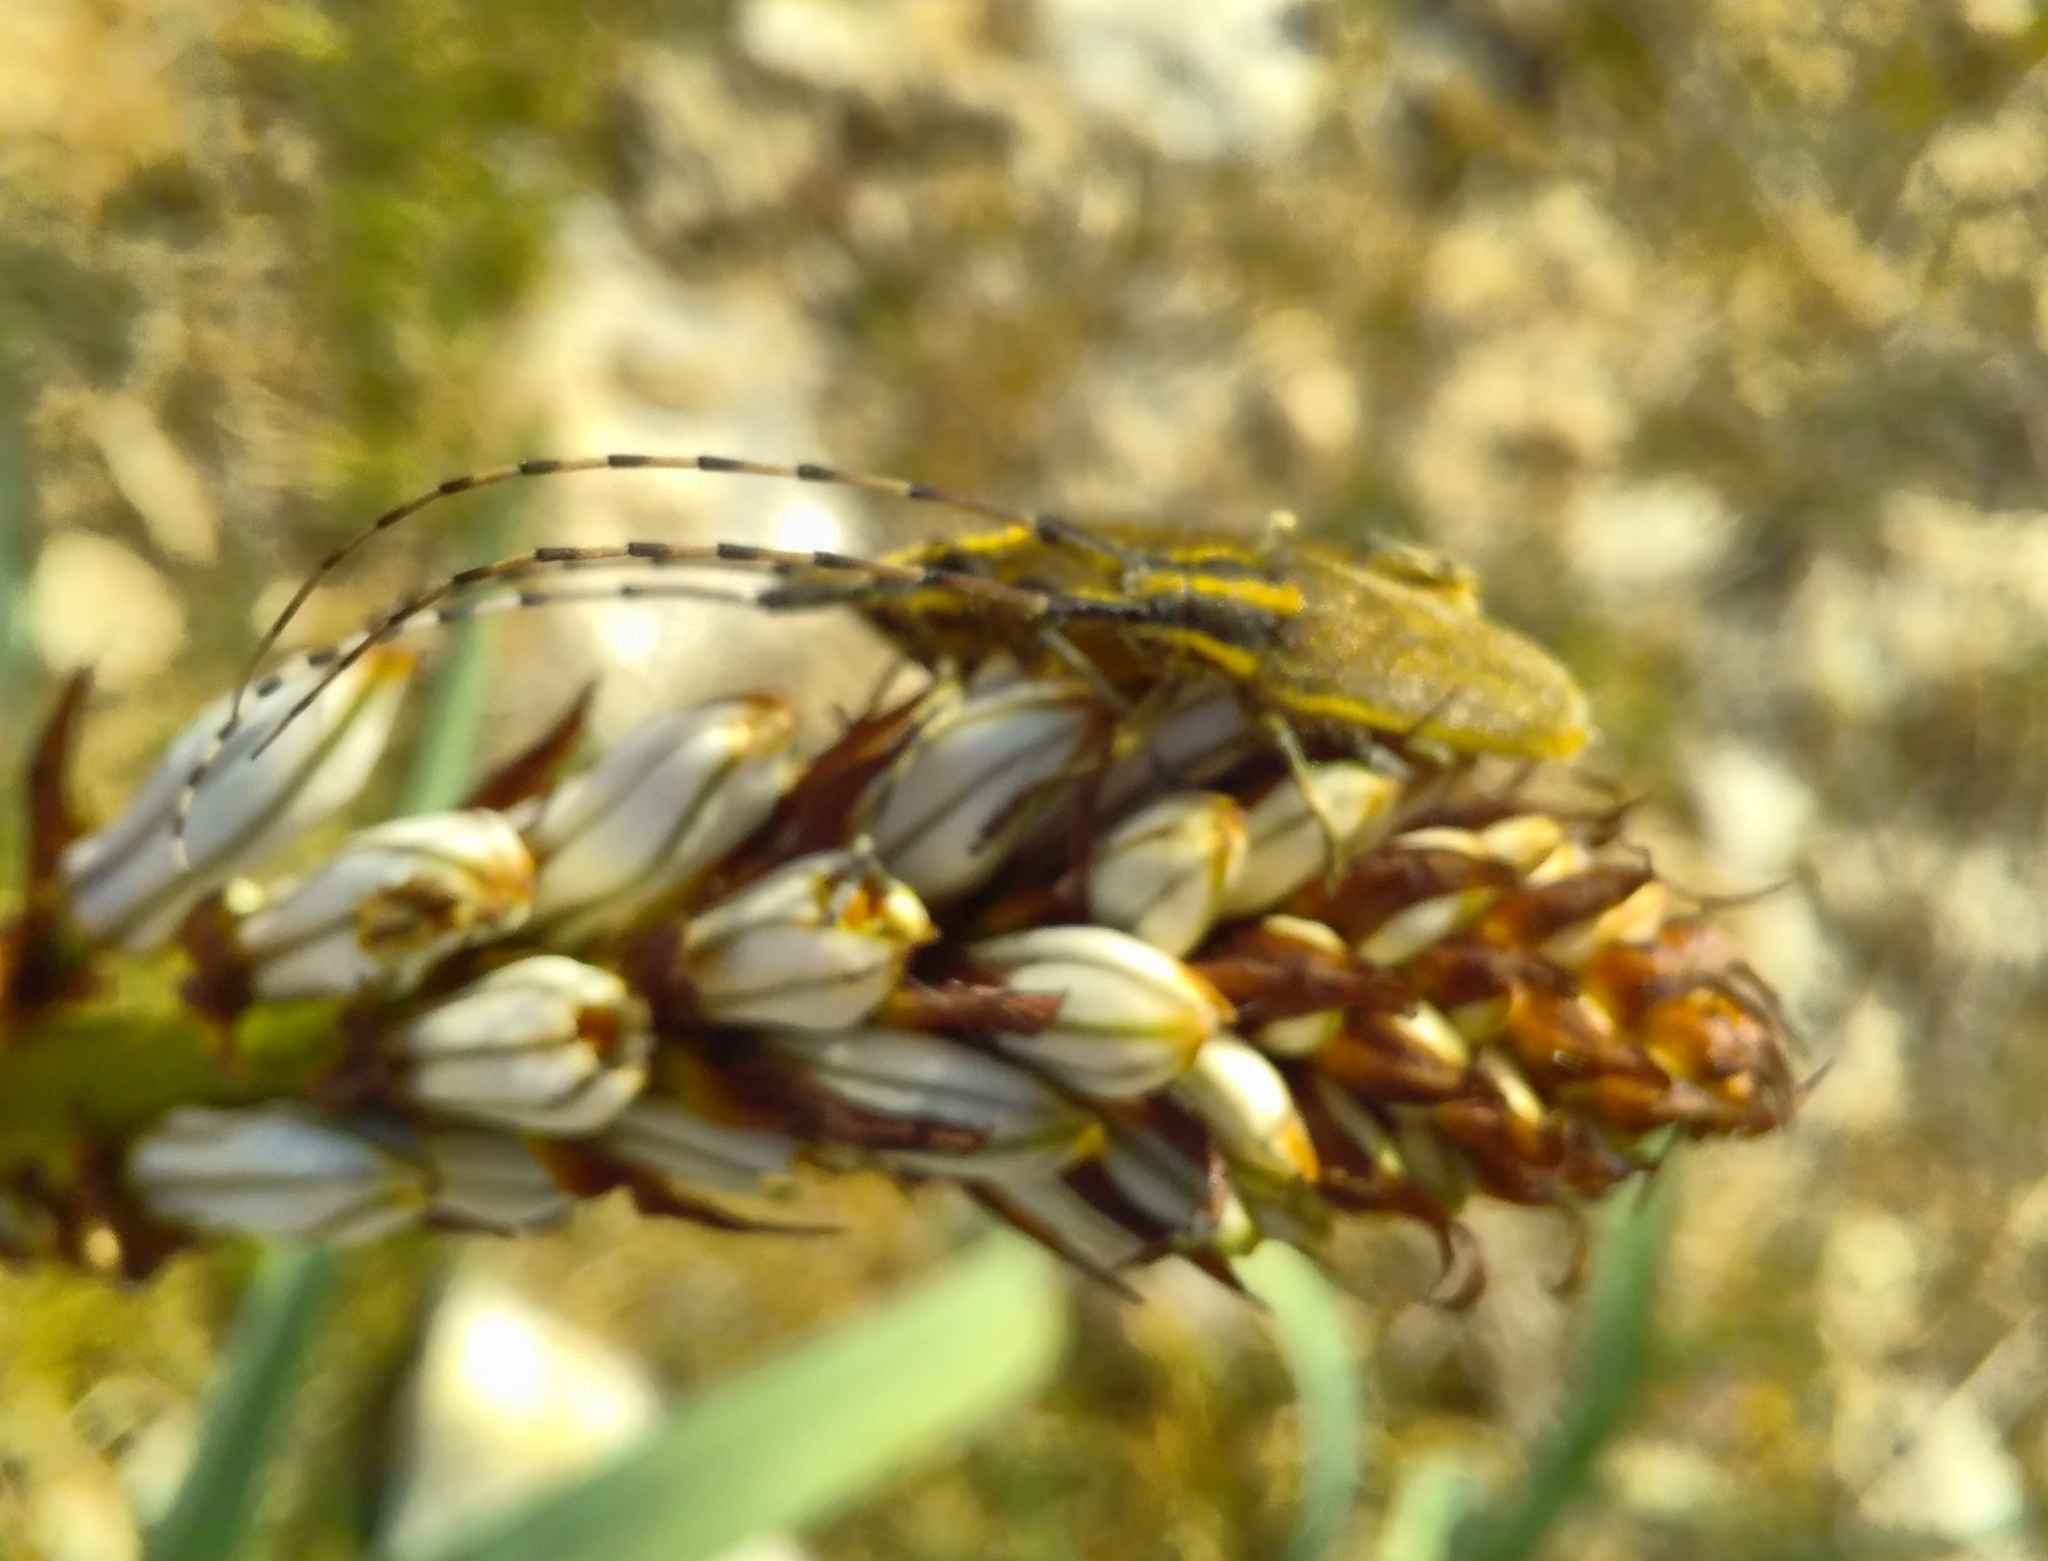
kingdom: Animalia
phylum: Arthropoda
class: Insecta
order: Coleoptera
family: Cerambycidae
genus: Agapanthia
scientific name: Agapanthia asphodeli
